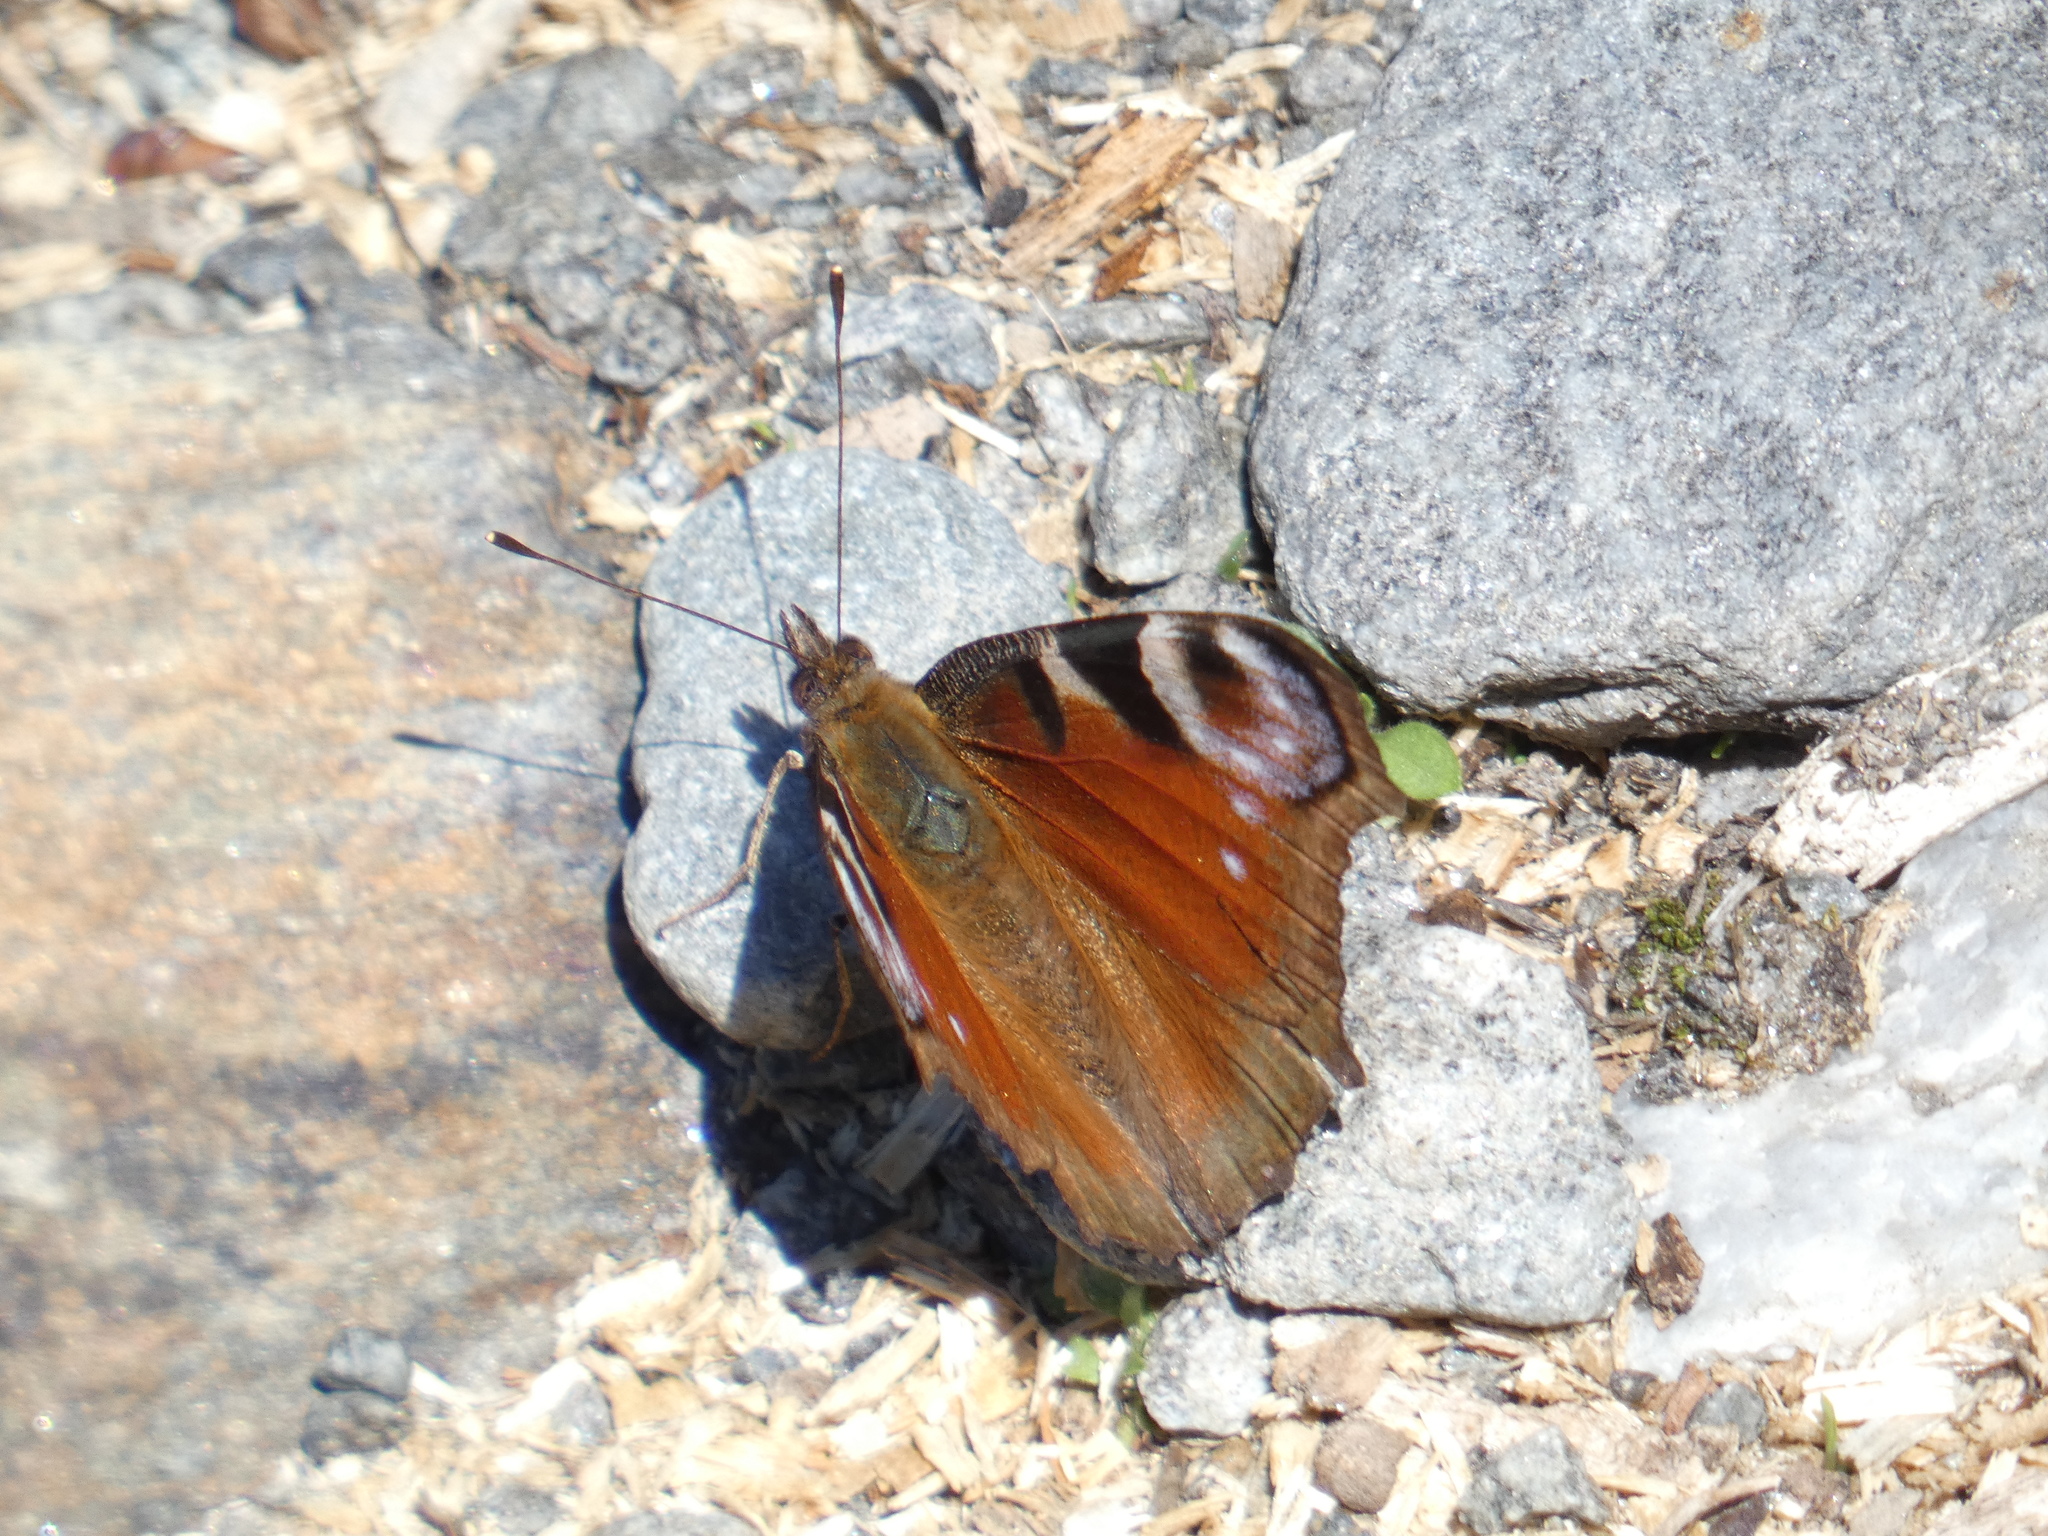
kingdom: Animalia
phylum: Arthropoda
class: Insecta
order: Lepidoptera
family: Nymphalidae
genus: Aglais
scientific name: Aglais io
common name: Peacock
